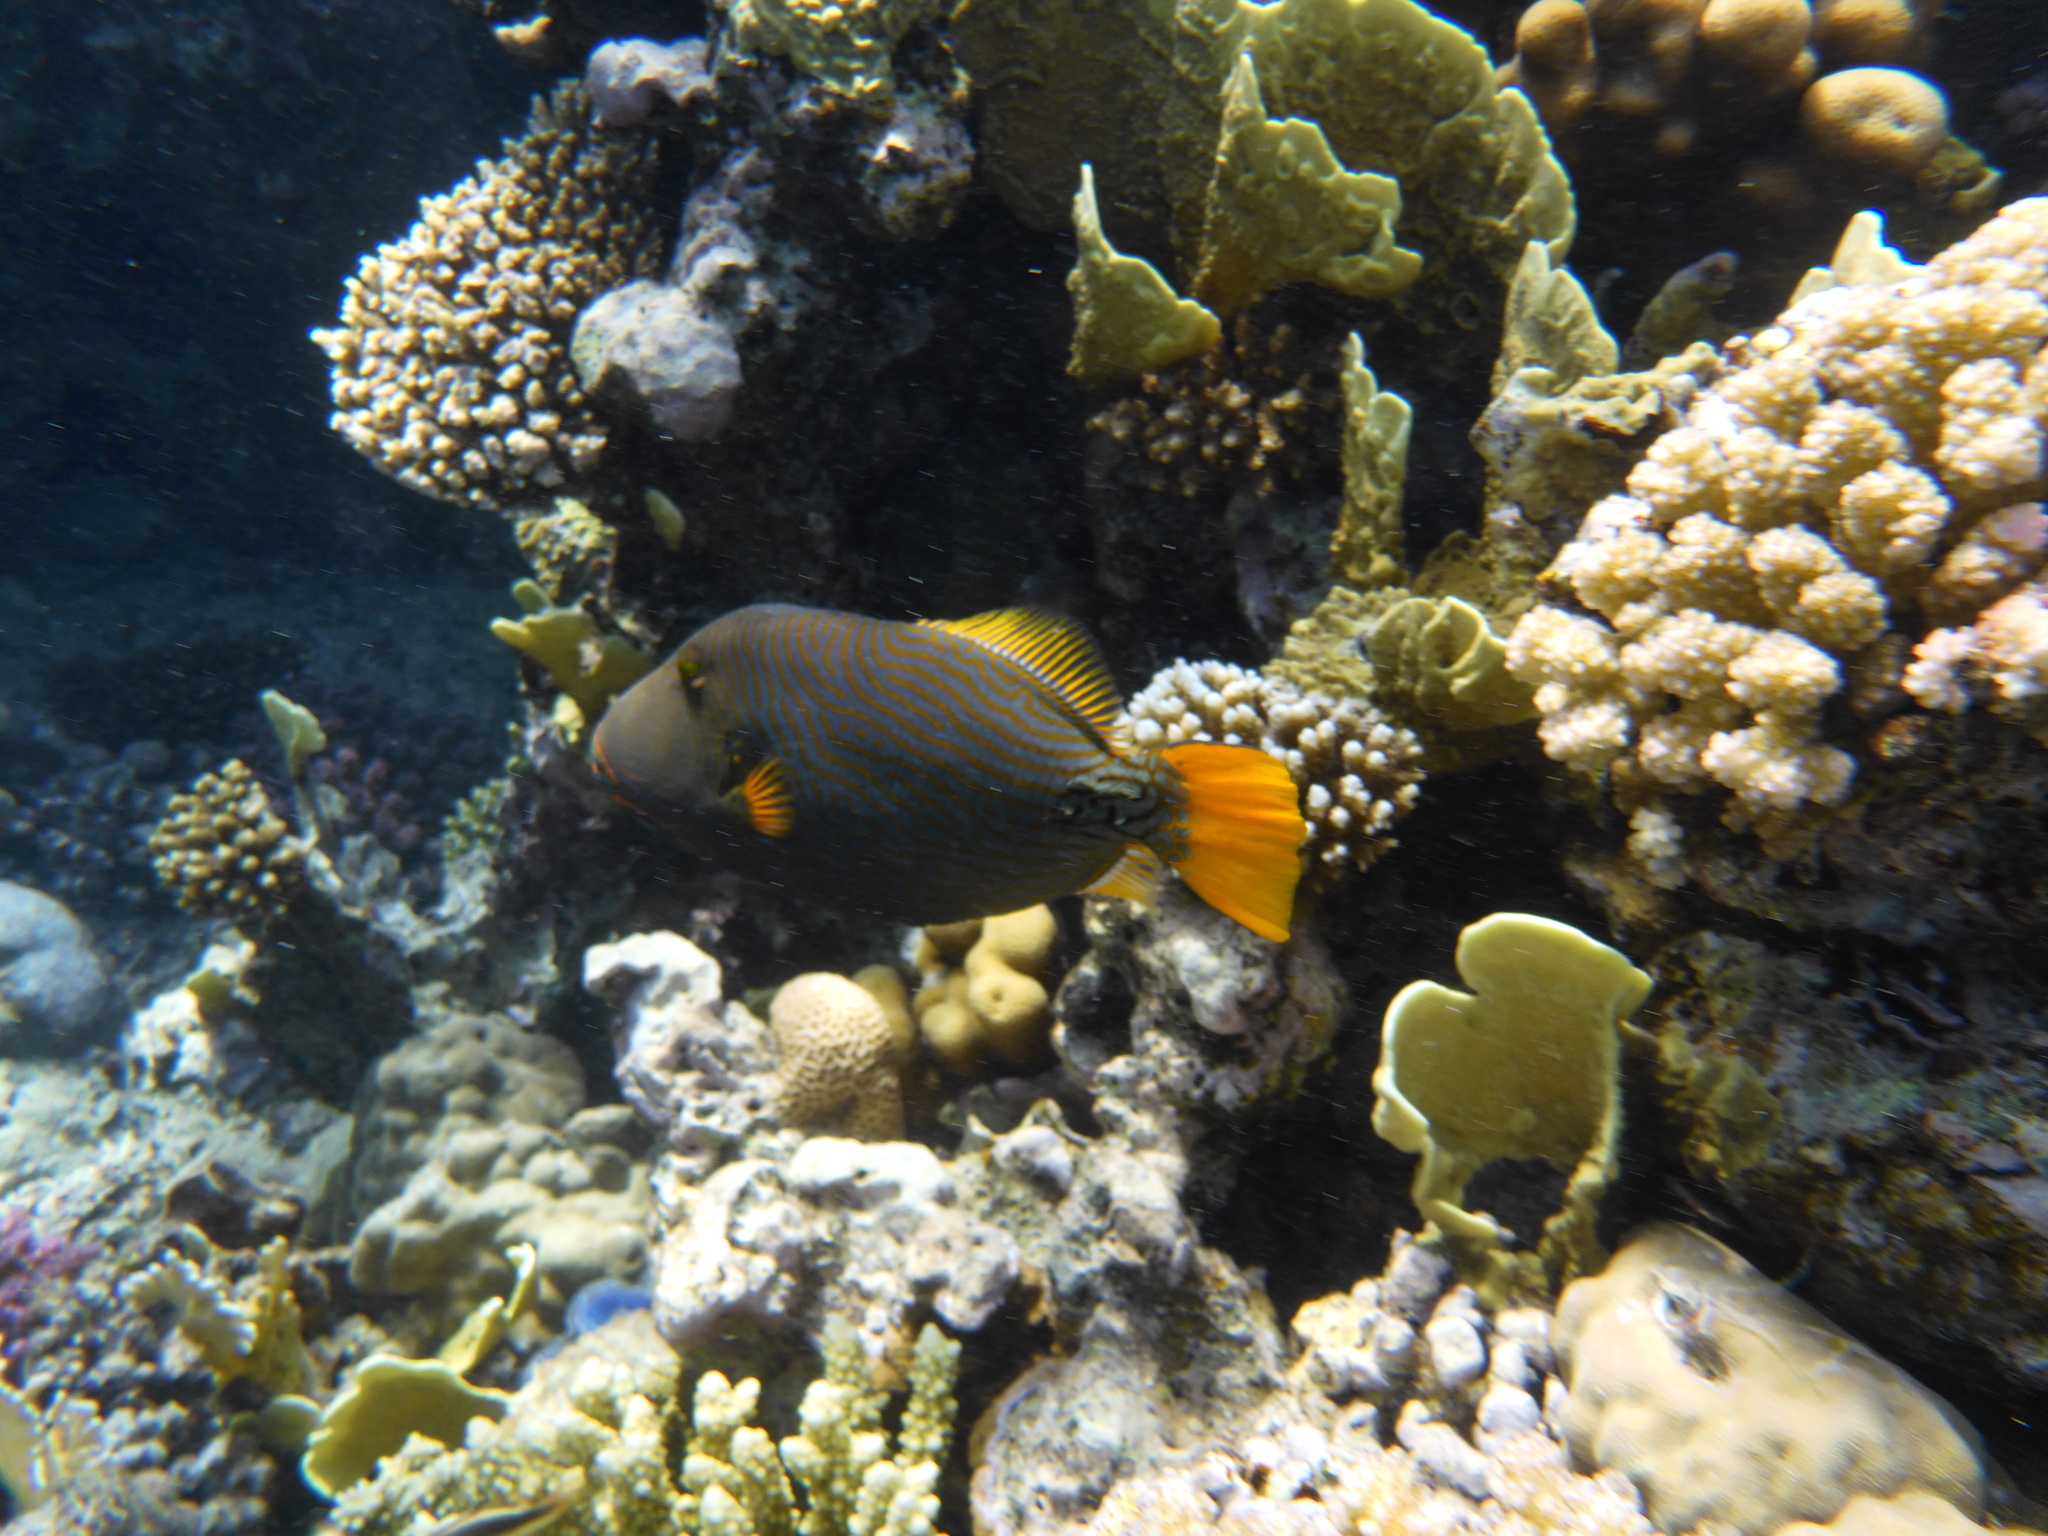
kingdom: Animalia
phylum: Chordata
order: Tetraodontiformes
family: Balistidae
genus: Balistapus
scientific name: Balistapus undulatus
